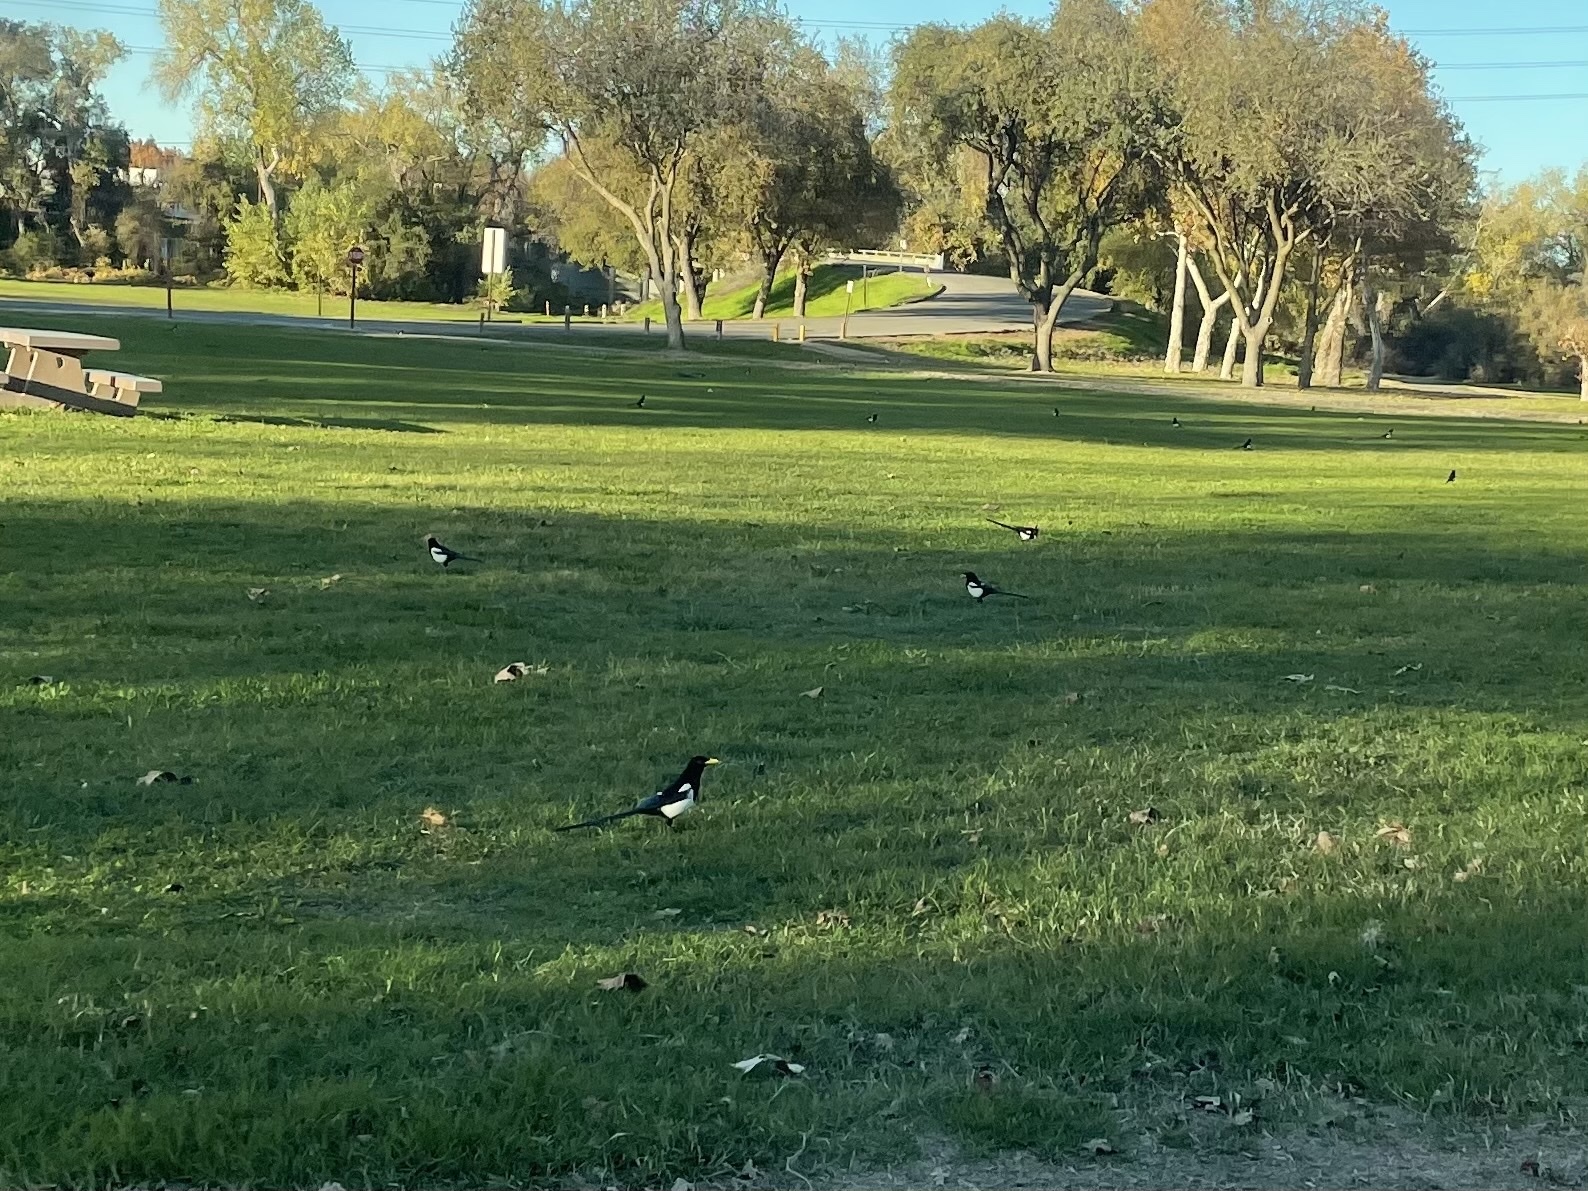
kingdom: Animalia
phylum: Chordata
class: Aves
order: Passeriformes
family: Corvidae
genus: Pica
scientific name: Pica nuttalli
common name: Yellow-billed magpie
